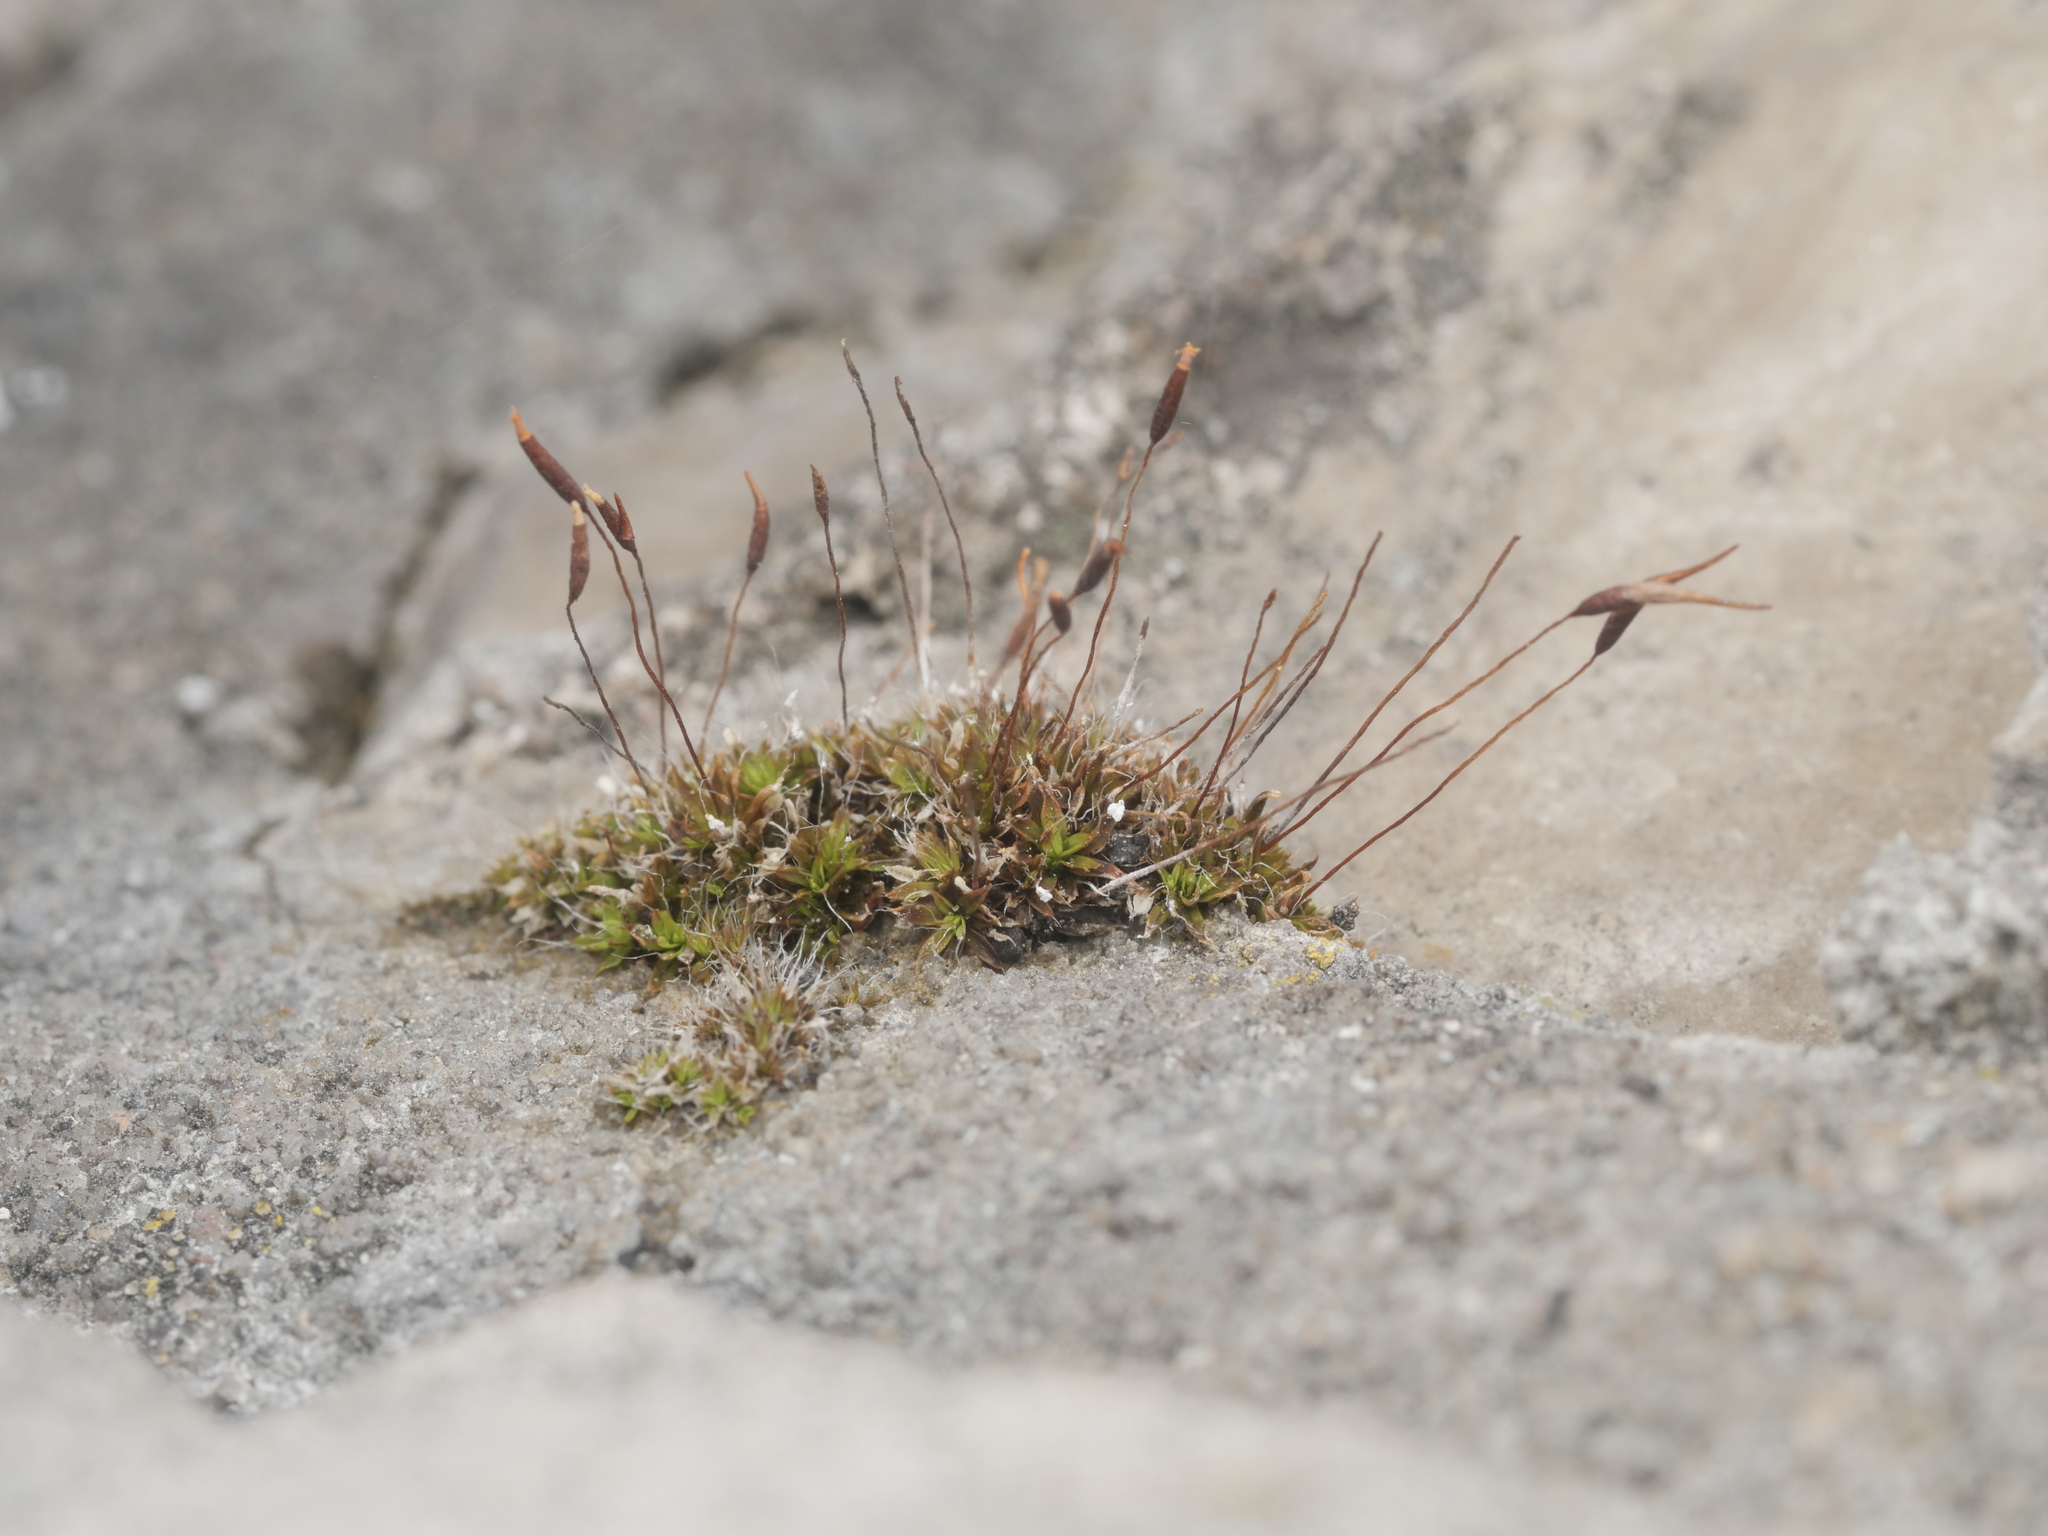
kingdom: Plantae
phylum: Bryophyta
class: Bryopsida
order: Pottiales
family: Pottiaceae
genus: Tortula
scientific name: Tortula muralis
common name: Wall screw-moss
